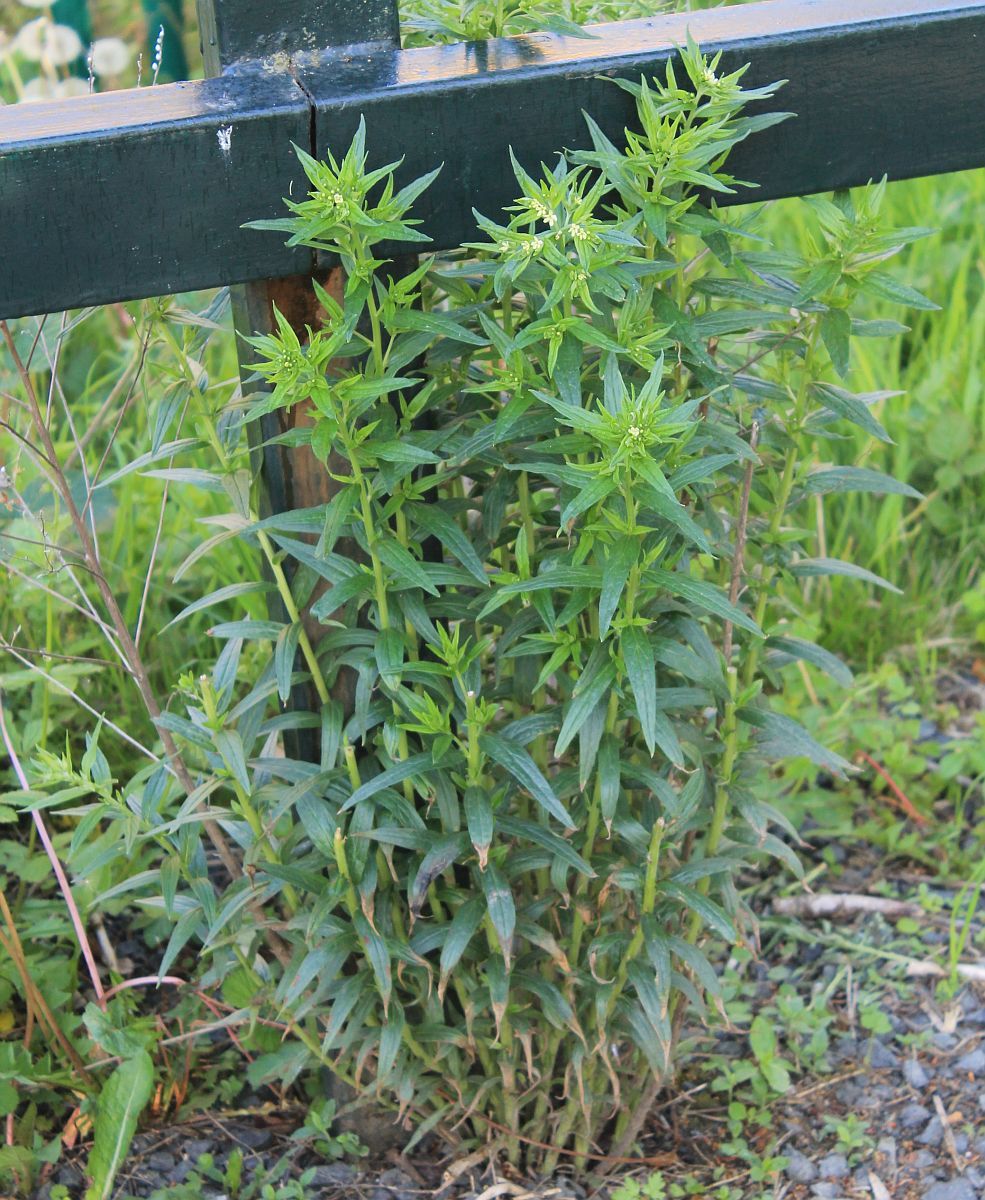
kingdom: Plantae
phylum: Tracheophyta
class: Magnoliopsida
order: Boraginales
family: Boraginaceae
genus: Lithospermum
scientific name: Lithospermum officinale
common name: Common gromwell
